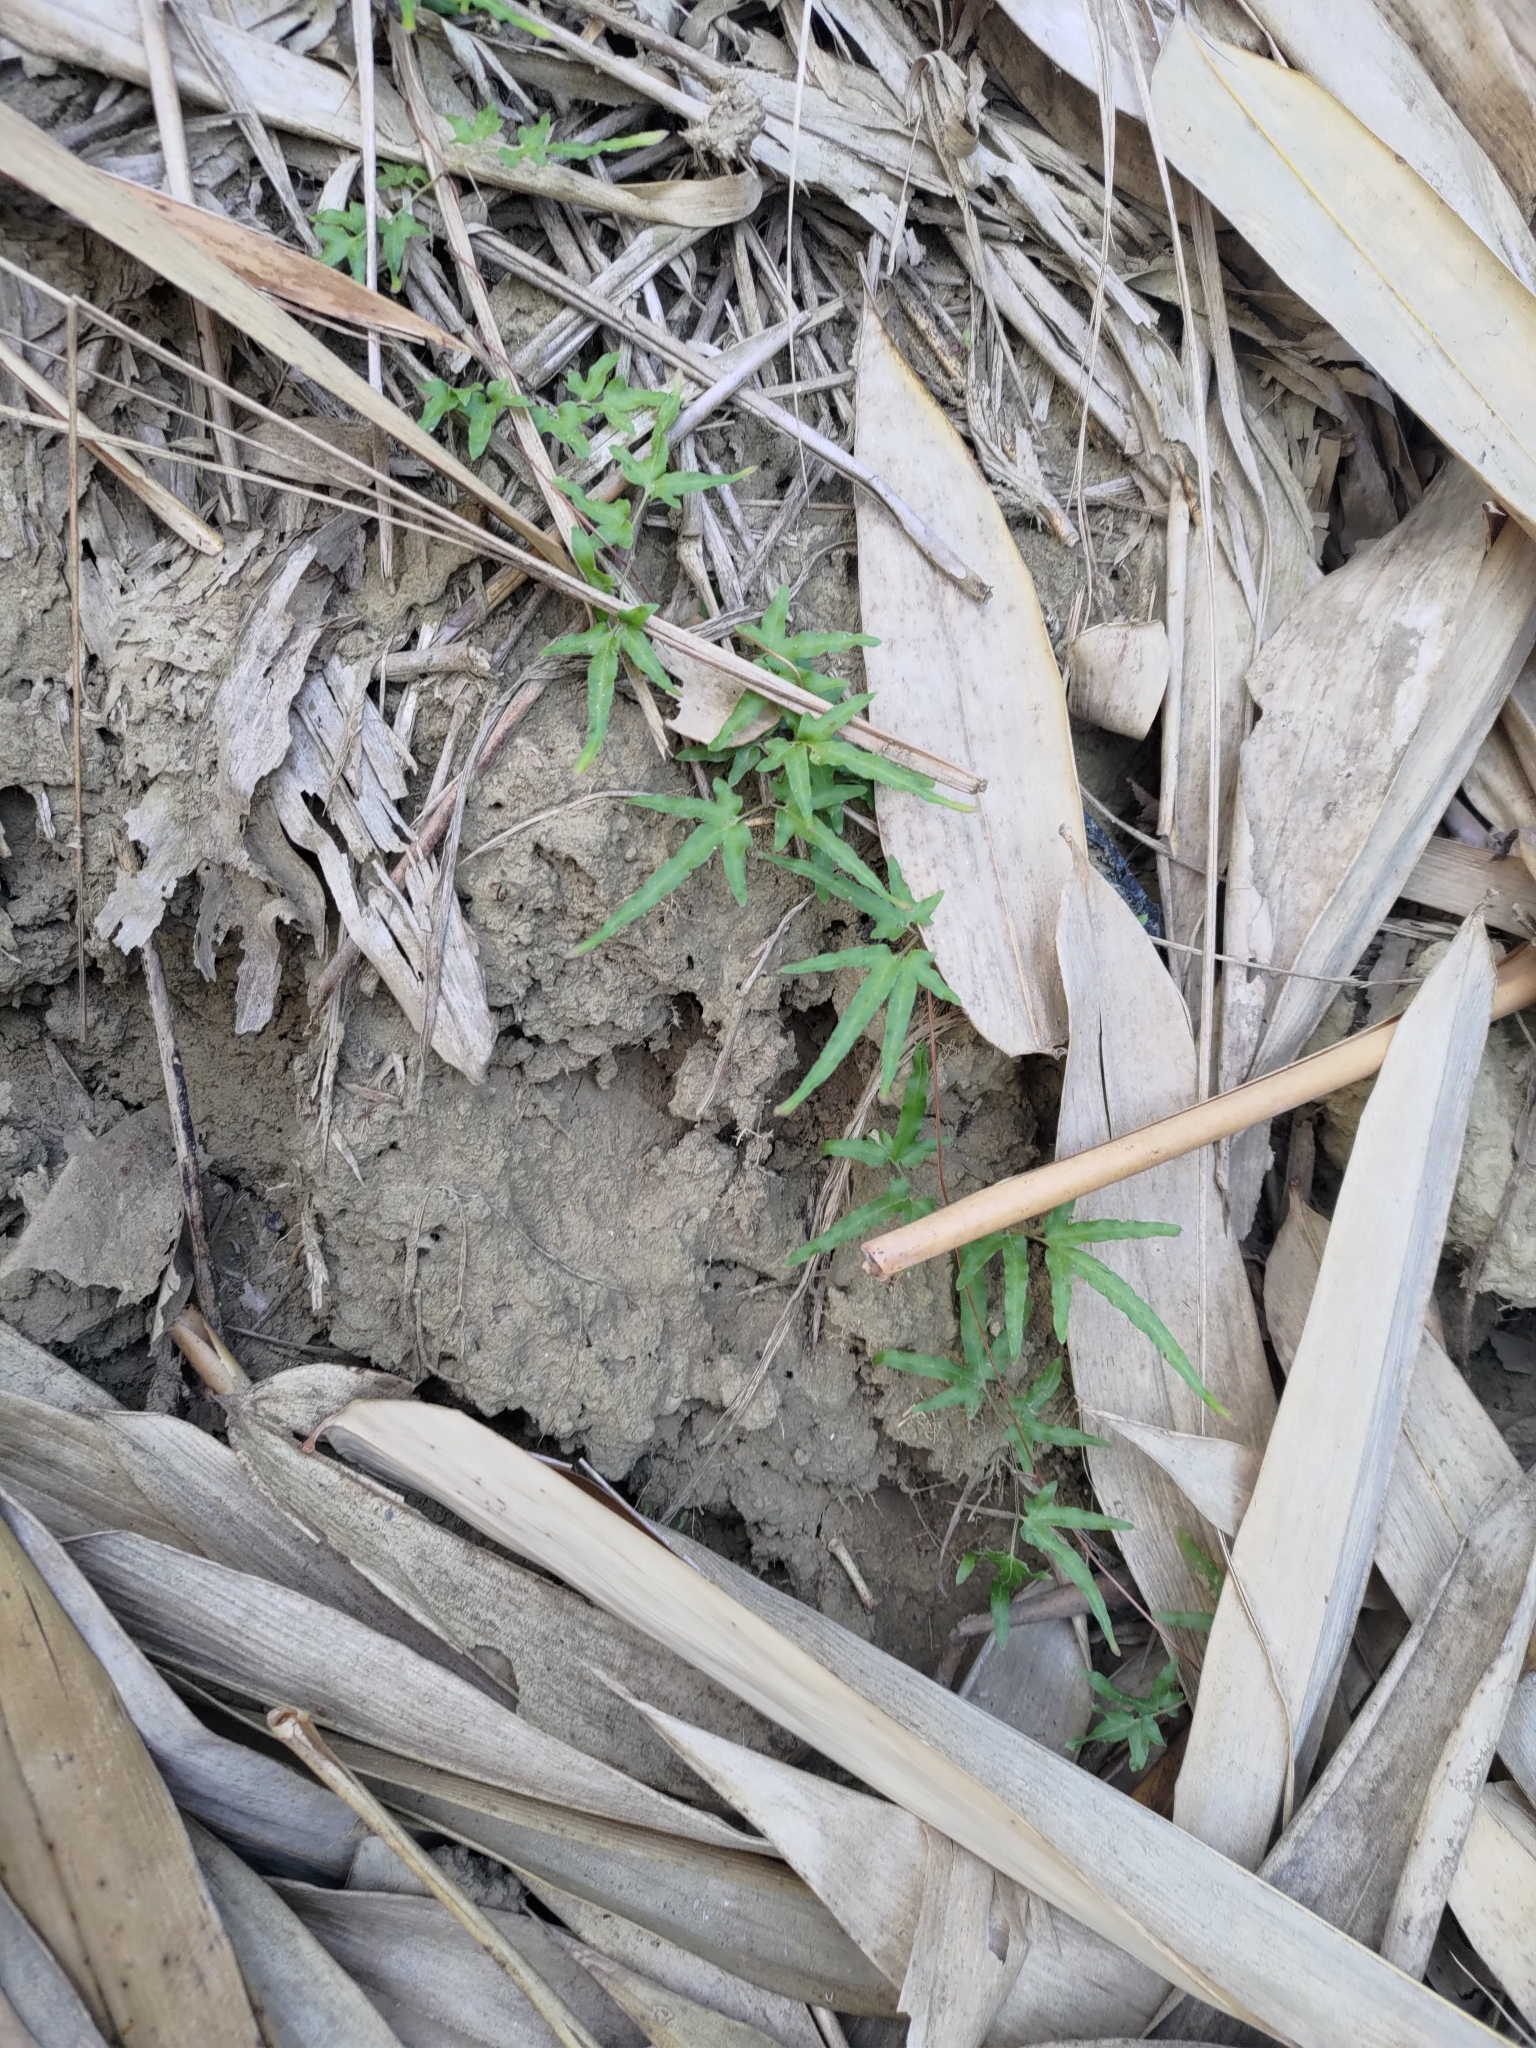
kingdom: Plantae
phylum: Tracheophyta
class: Polypodiopsida
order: Schizaeales
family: Lygodiaceae
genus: Lygodium
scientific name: Lygodium japonicum
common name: Japanese climbing fern
